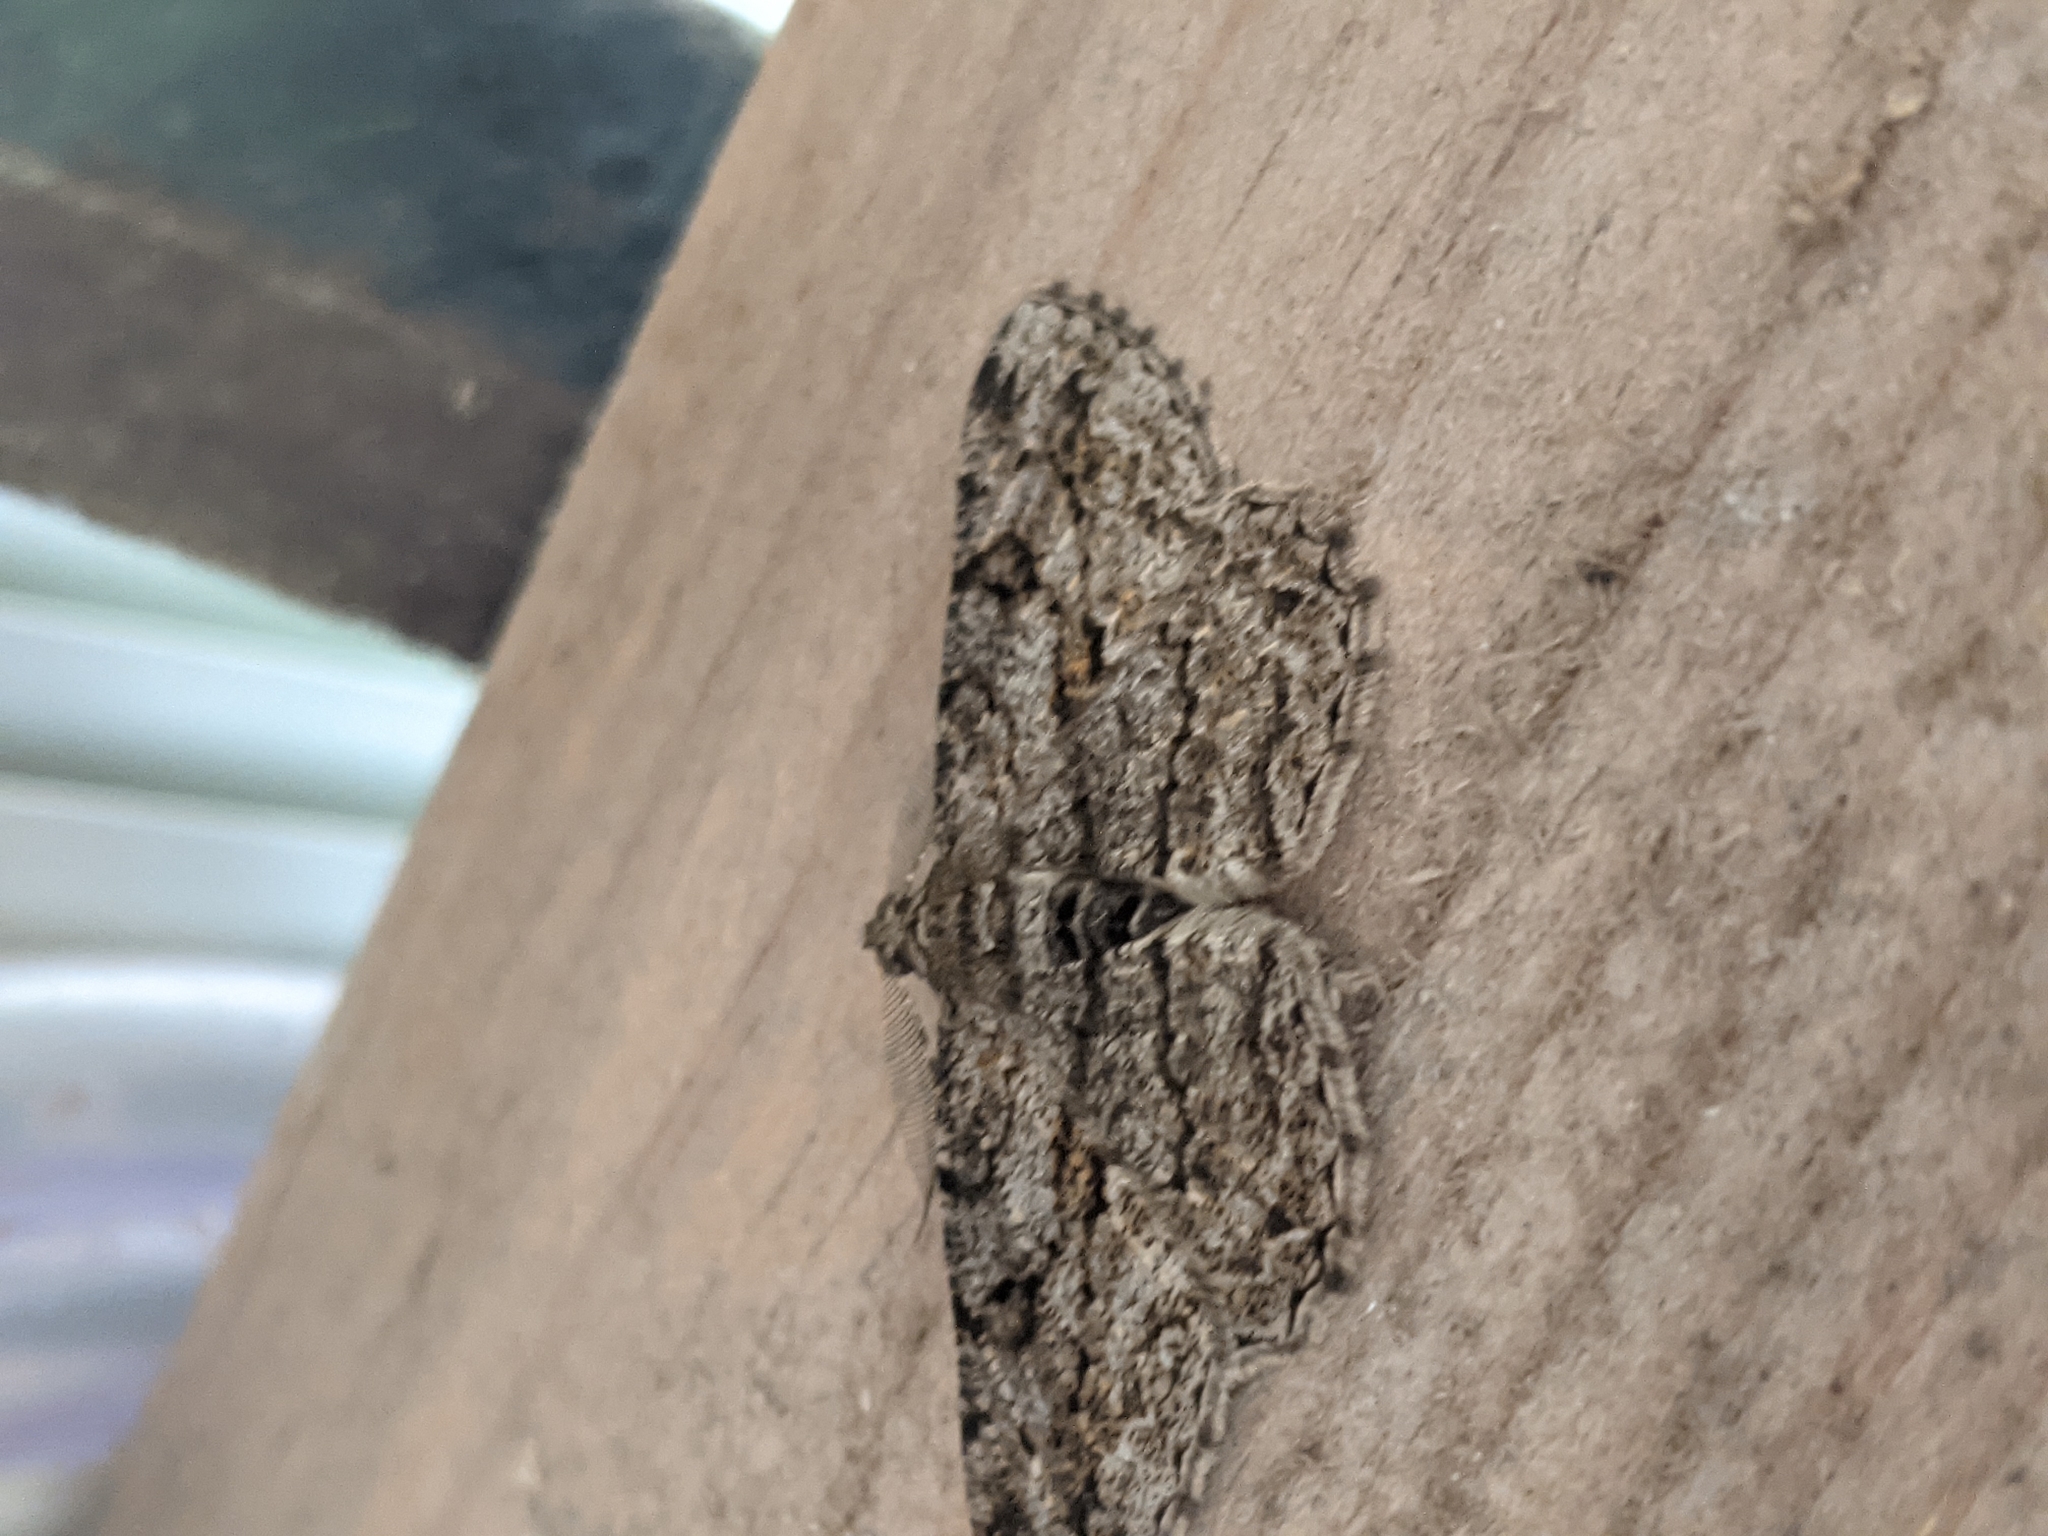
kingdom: Animalia
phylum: Arthropoda
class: Insecta
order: Lepidoptera
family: Geometridae
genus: Peribatodes
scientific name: Peribatodes rhomboidaria
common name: Willow beauty
